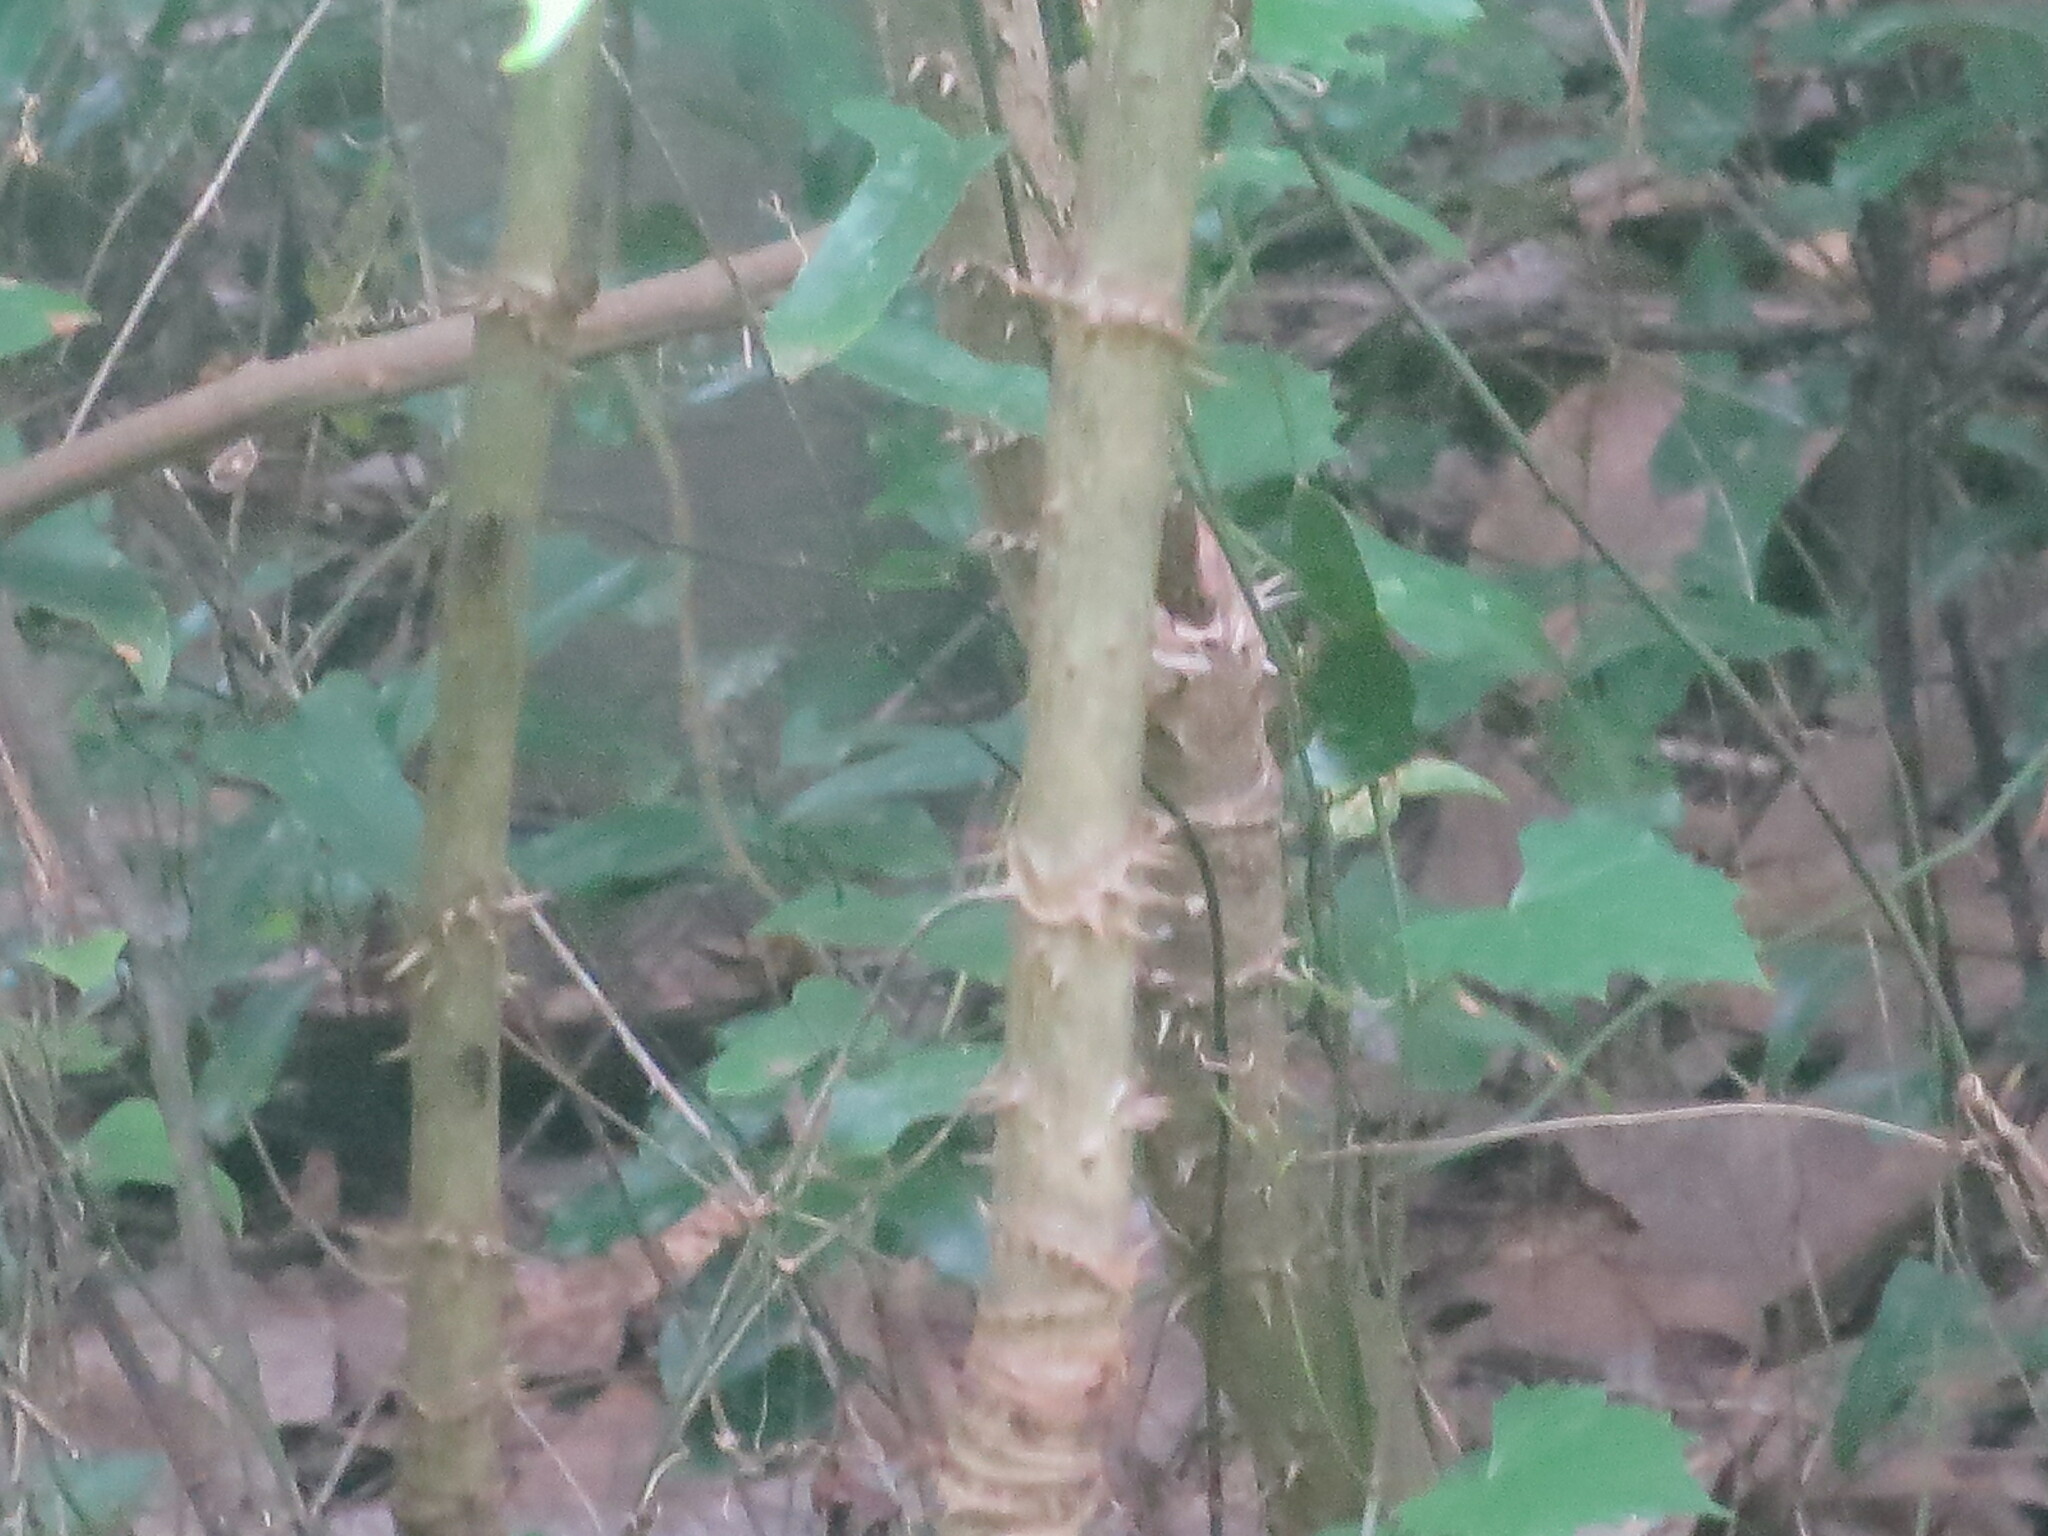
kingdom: Plantae
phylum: Tracheophyta
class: Magnoliopsida
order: Apiales
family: Araliaceae
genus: Aralia
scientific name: Aralia spinosa
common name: Hercules'-club
